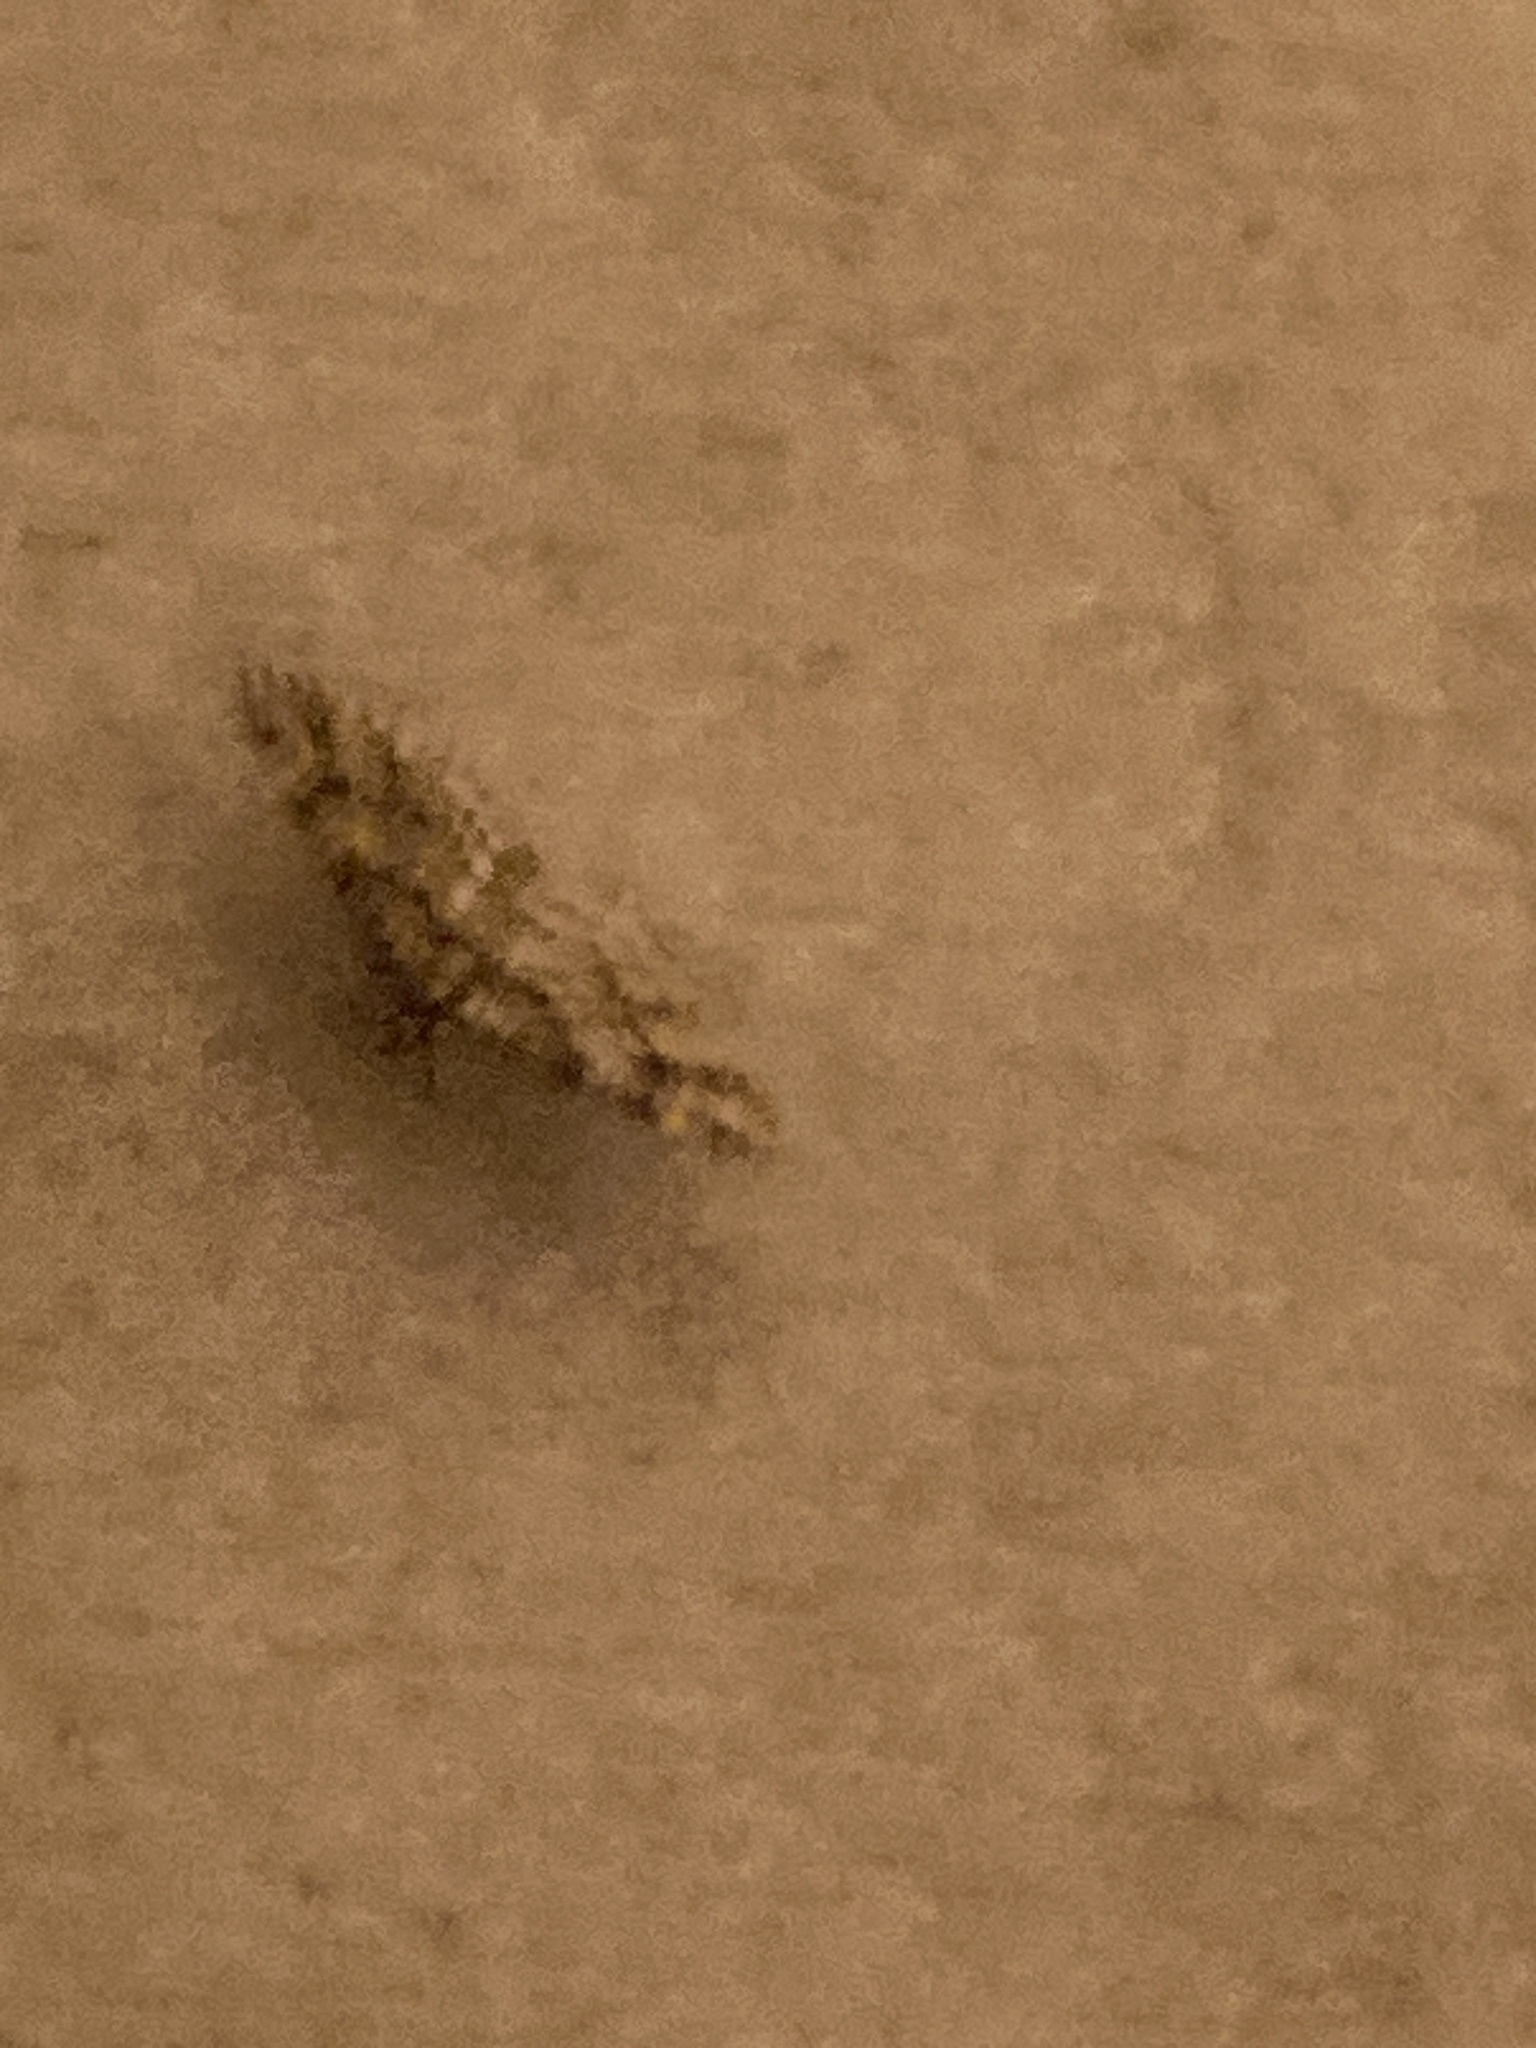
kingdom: Animalia
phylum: Arthropoda
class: Insecta
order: Lepidoptera
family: Geometridae
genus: Gymnoscelis
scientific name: Gymnoscelis rufifasciata
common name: Double-striped pug
